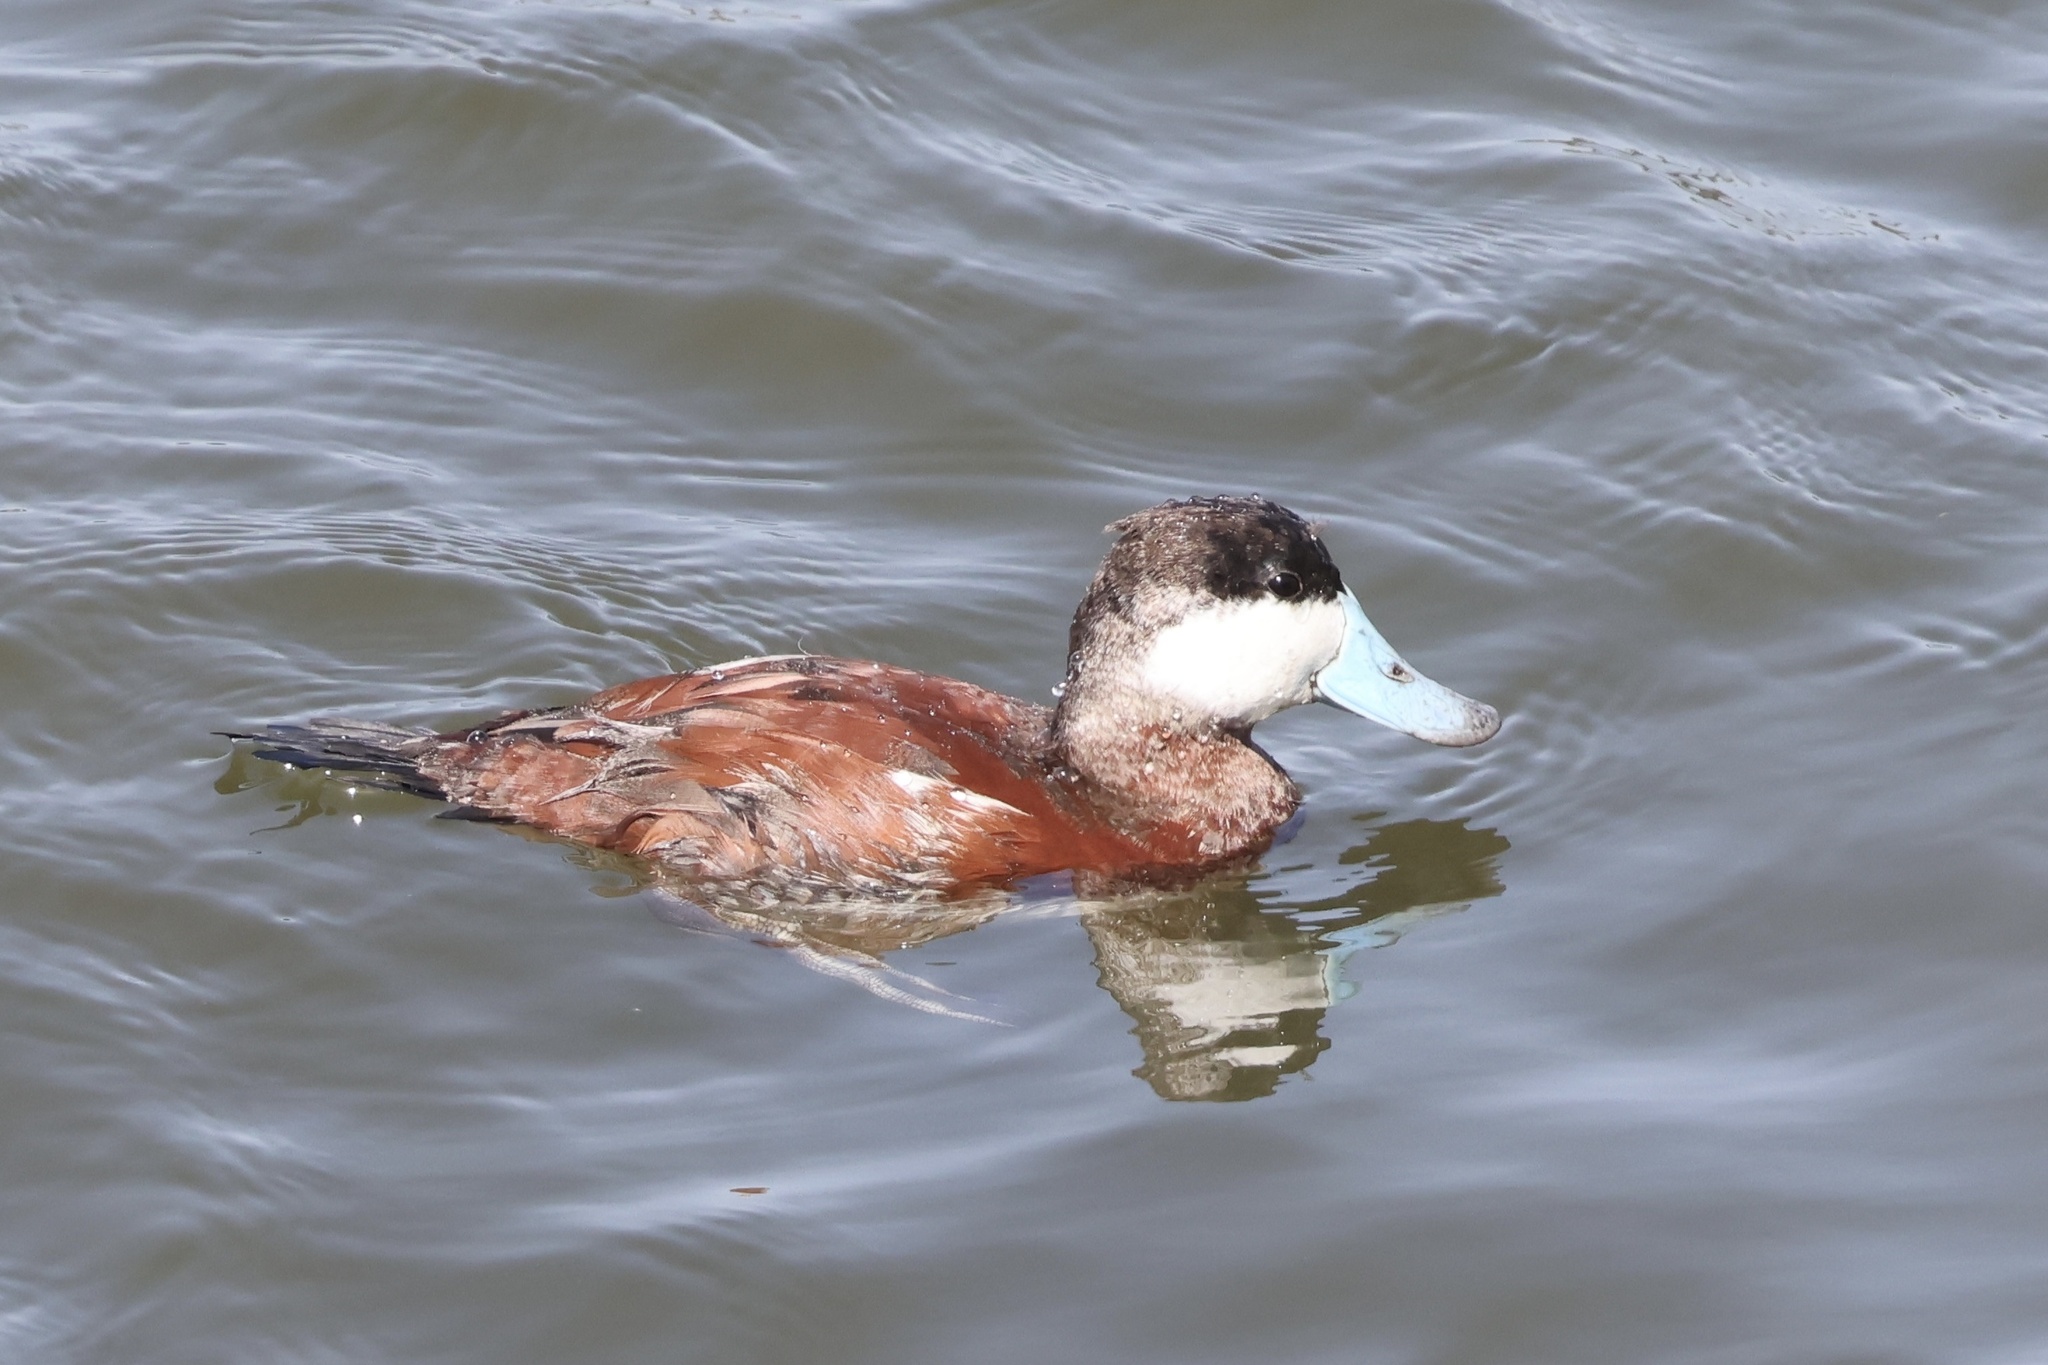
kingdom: Animalia
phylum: Chordata
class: Aves
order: Anseriformes
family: Anatidae
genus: Oxyura
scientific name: Oxyura jamaicensis
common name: Ruddy duck
